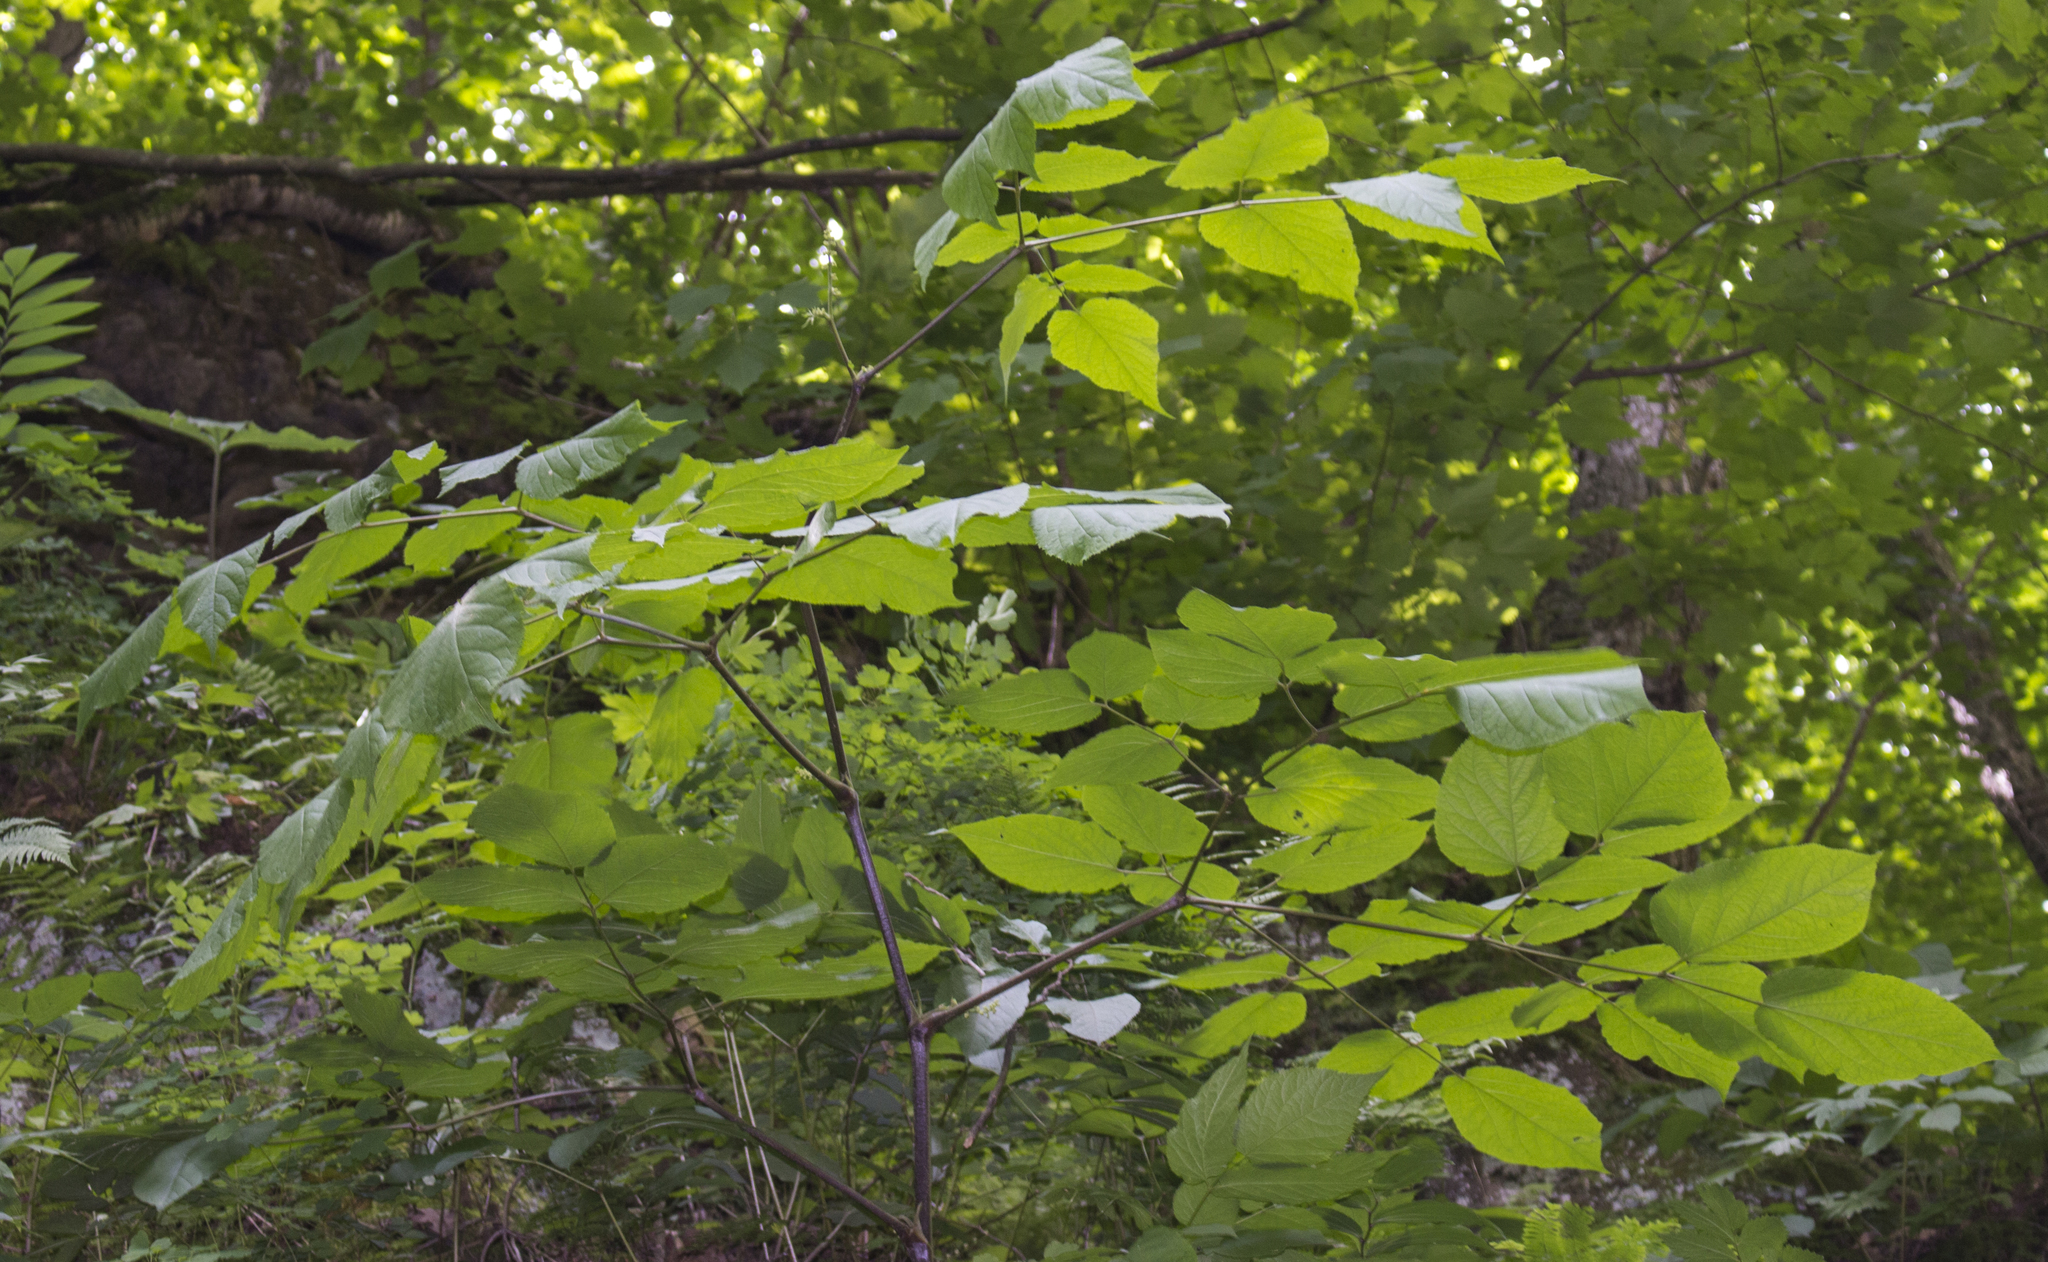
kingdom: Plantae
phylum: Tracheophyta
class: Magnoliopsida
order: Apiales
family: Araliaceae
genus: Aralia
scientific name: Aralia racemosa
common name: American-spikenard
